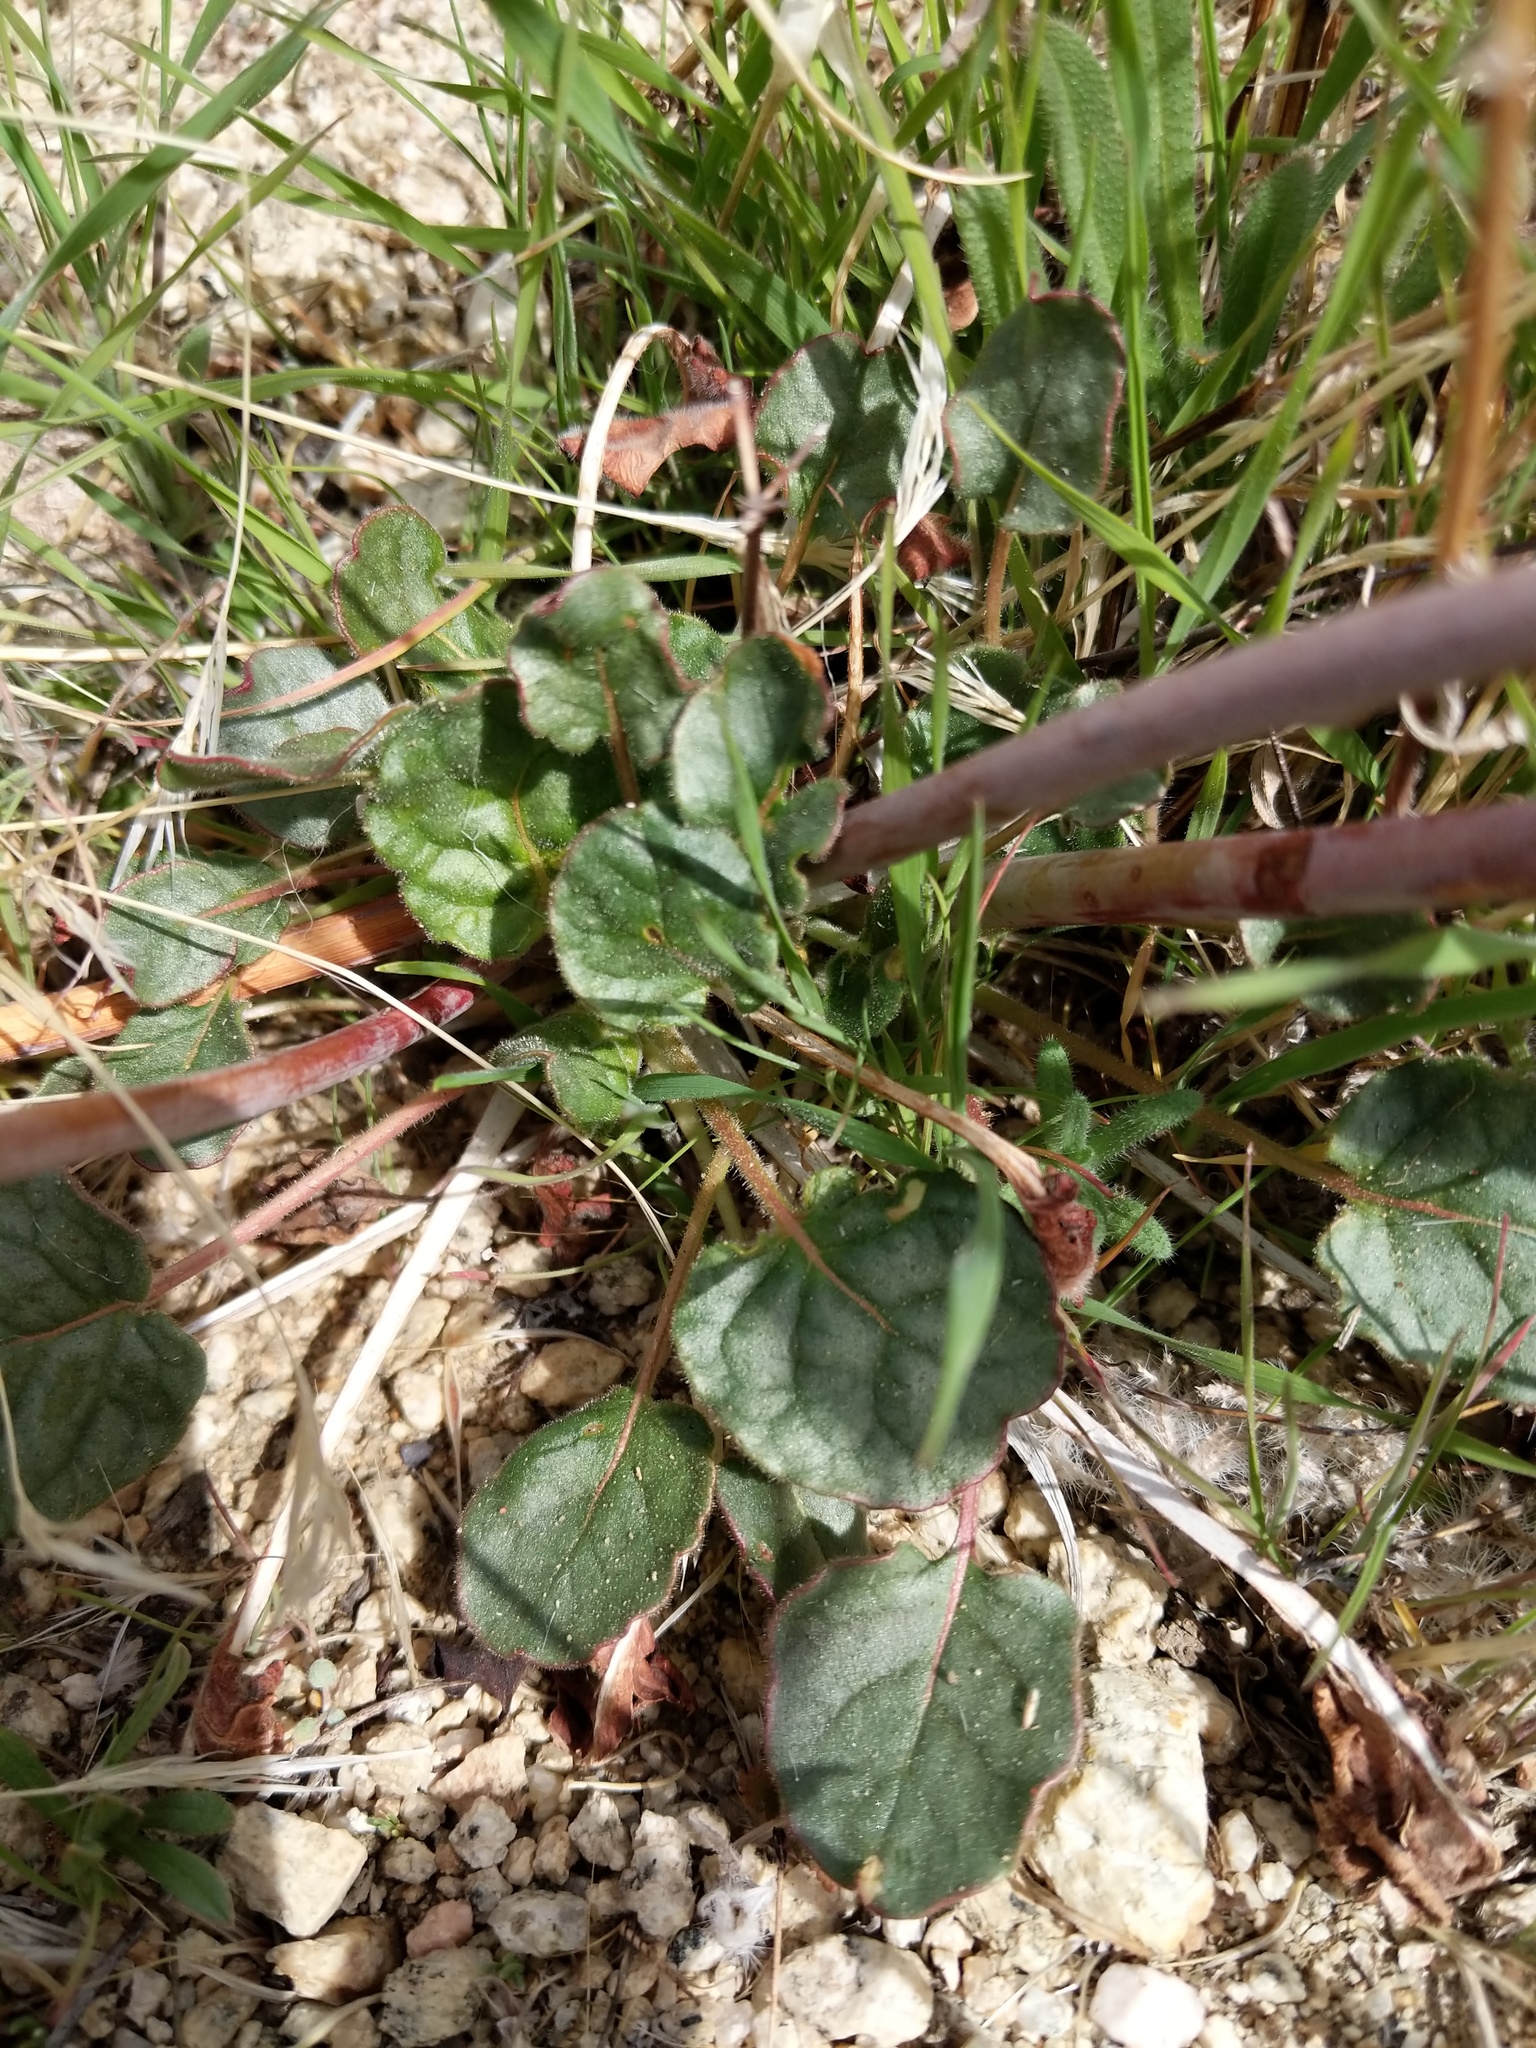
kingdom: Plantae
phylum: Tracheophyta
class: Magnoliopsida
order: Caryophyllales
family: Polygonaceae
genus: Eriogonum
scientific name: Eriogonum inflatum
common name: Desert trumpet
